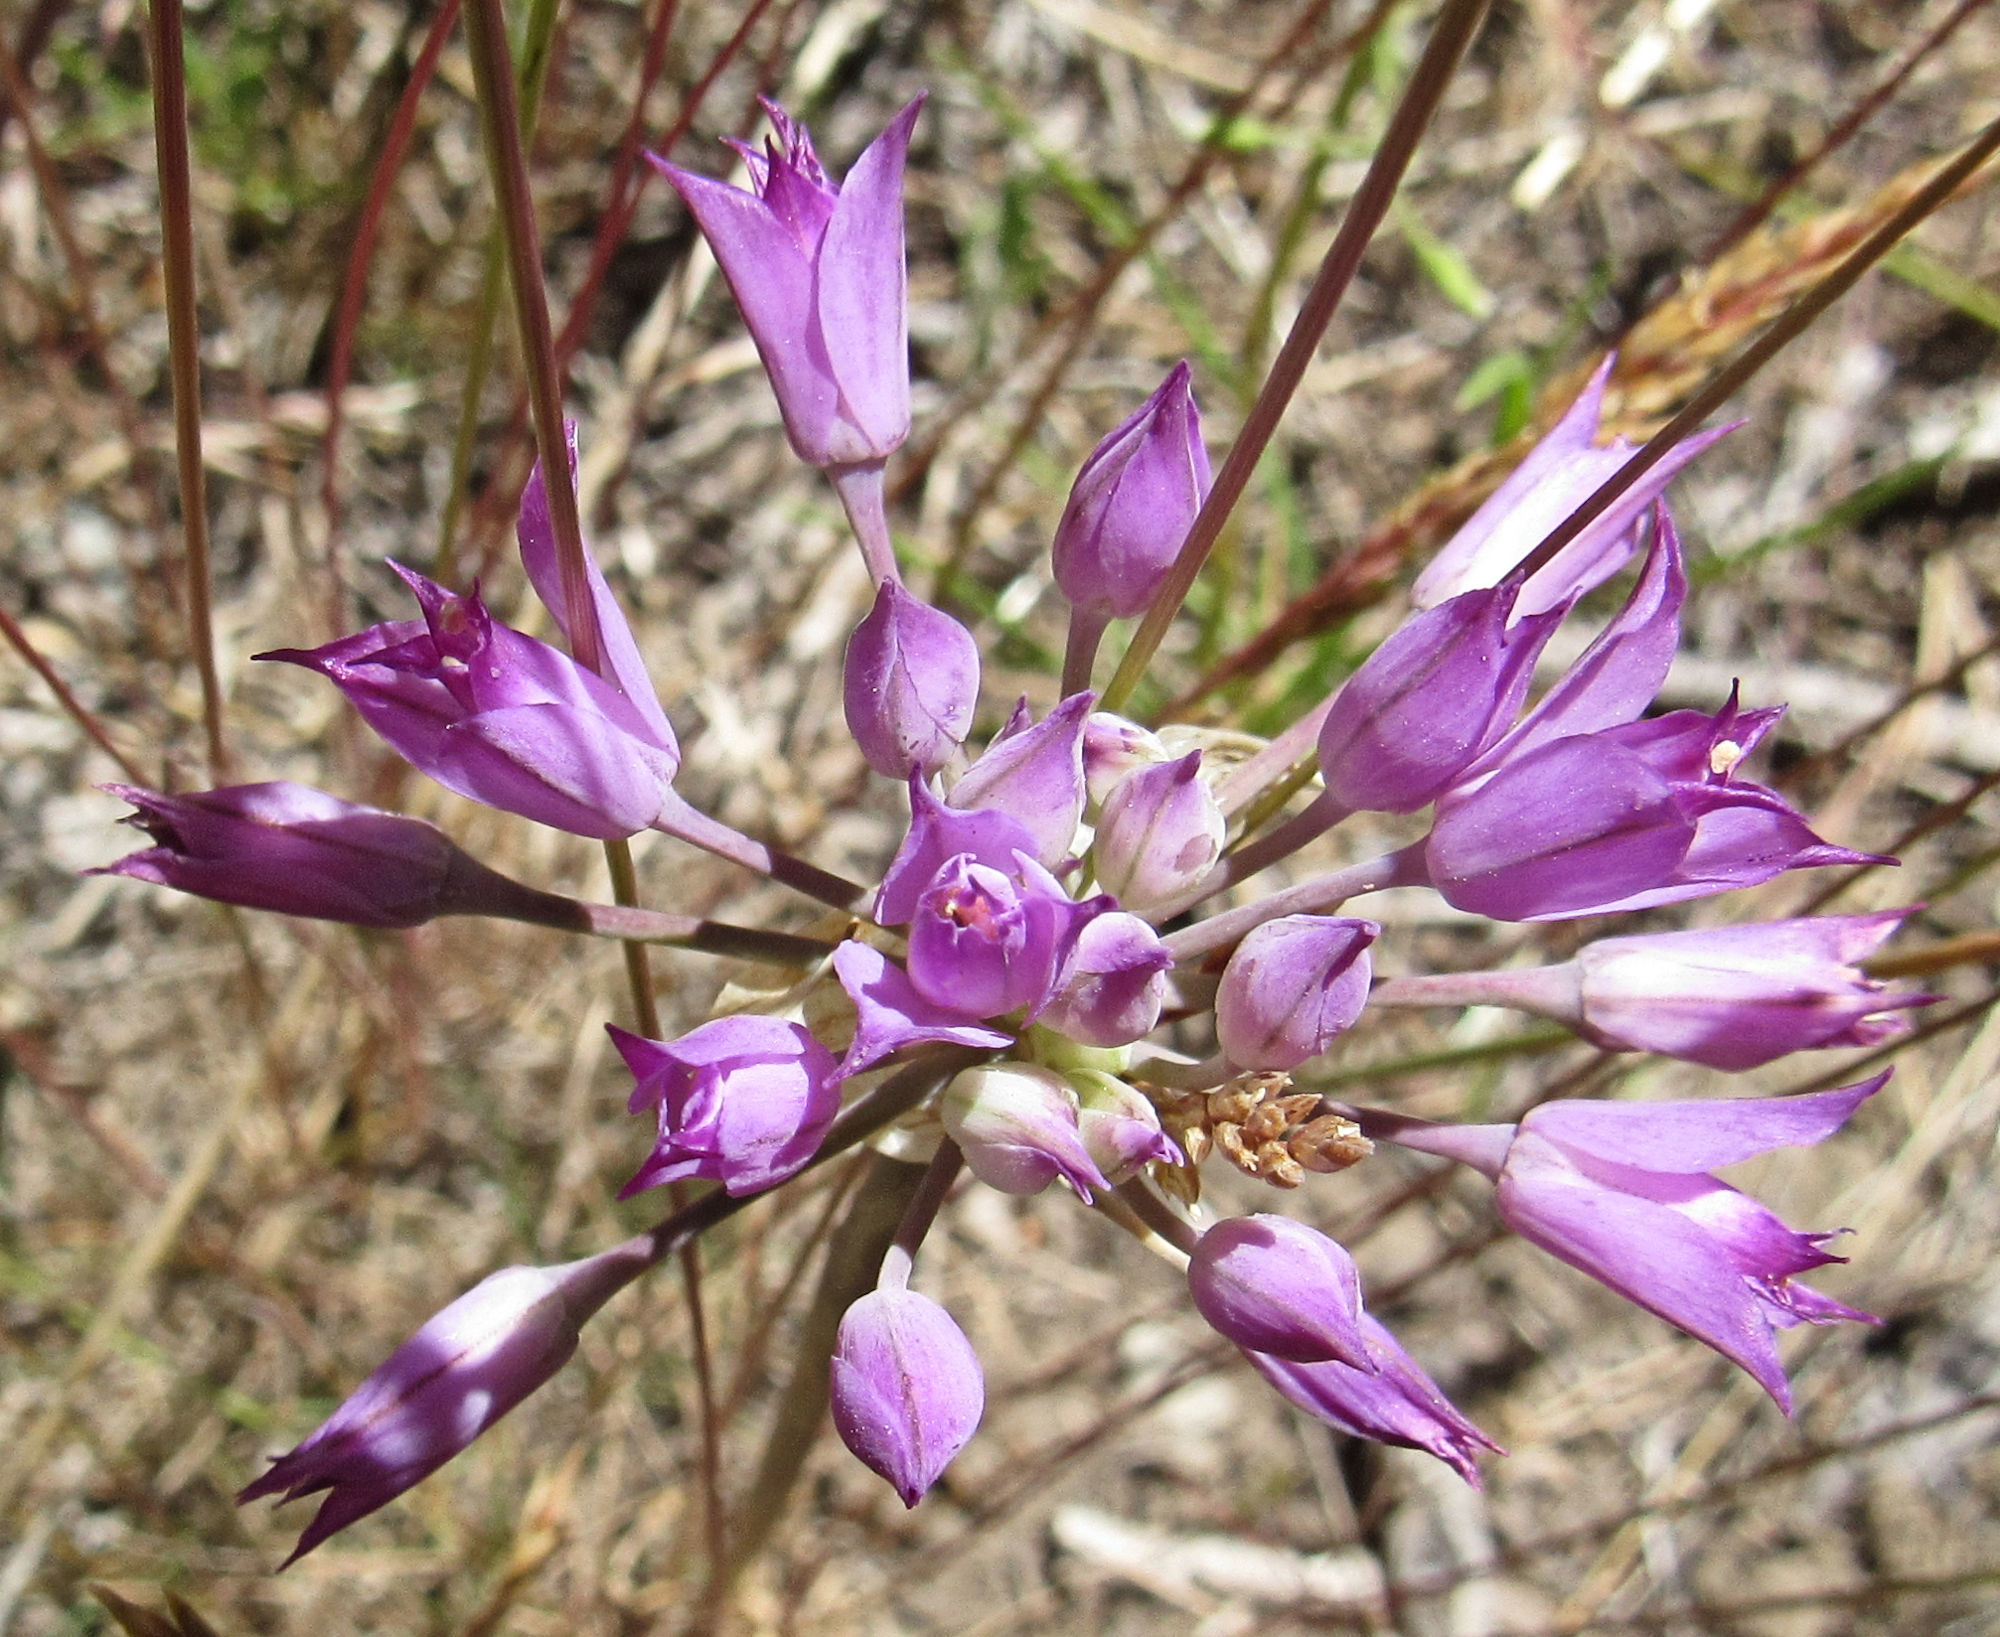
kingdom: Plantae
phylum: Tracheophyta
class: Liliopsida
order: Asparagales
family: Amaryllidaceae
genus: Allium
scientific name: Allium acuminatum
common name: Hooker's onion
